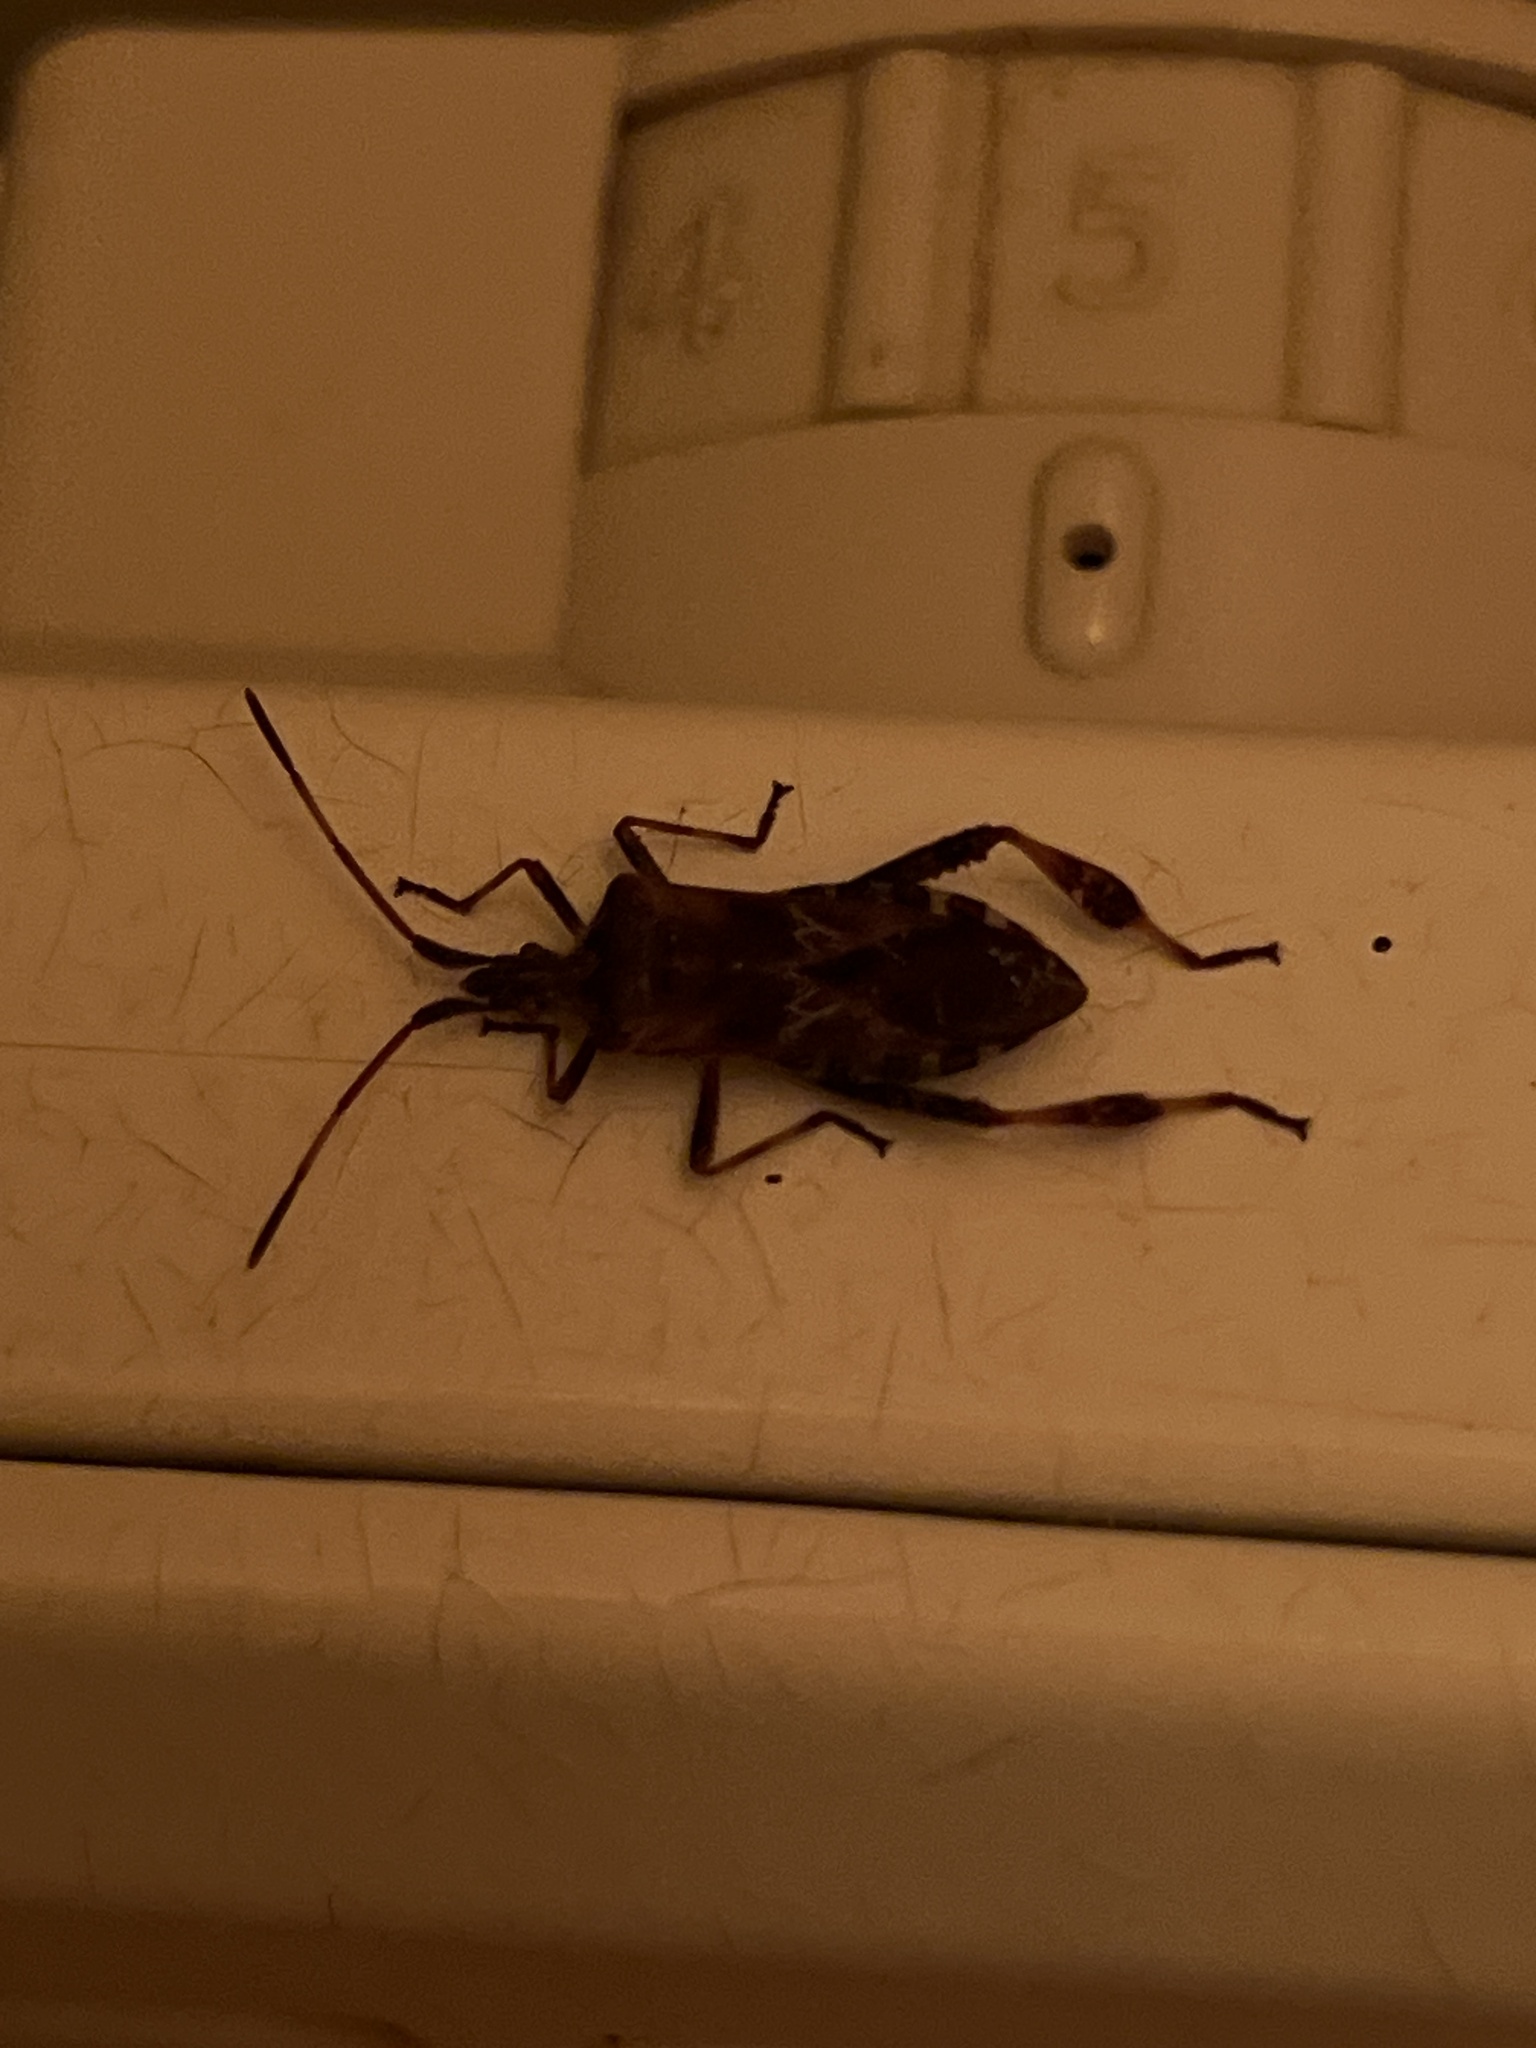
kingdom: Animalia
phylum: Arthropoda
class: Insecta
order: Hemiptera
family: Coreidae
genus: Leptoglossus
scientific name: Leptoglossus occidentalis
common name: Western conifer-seed bug
